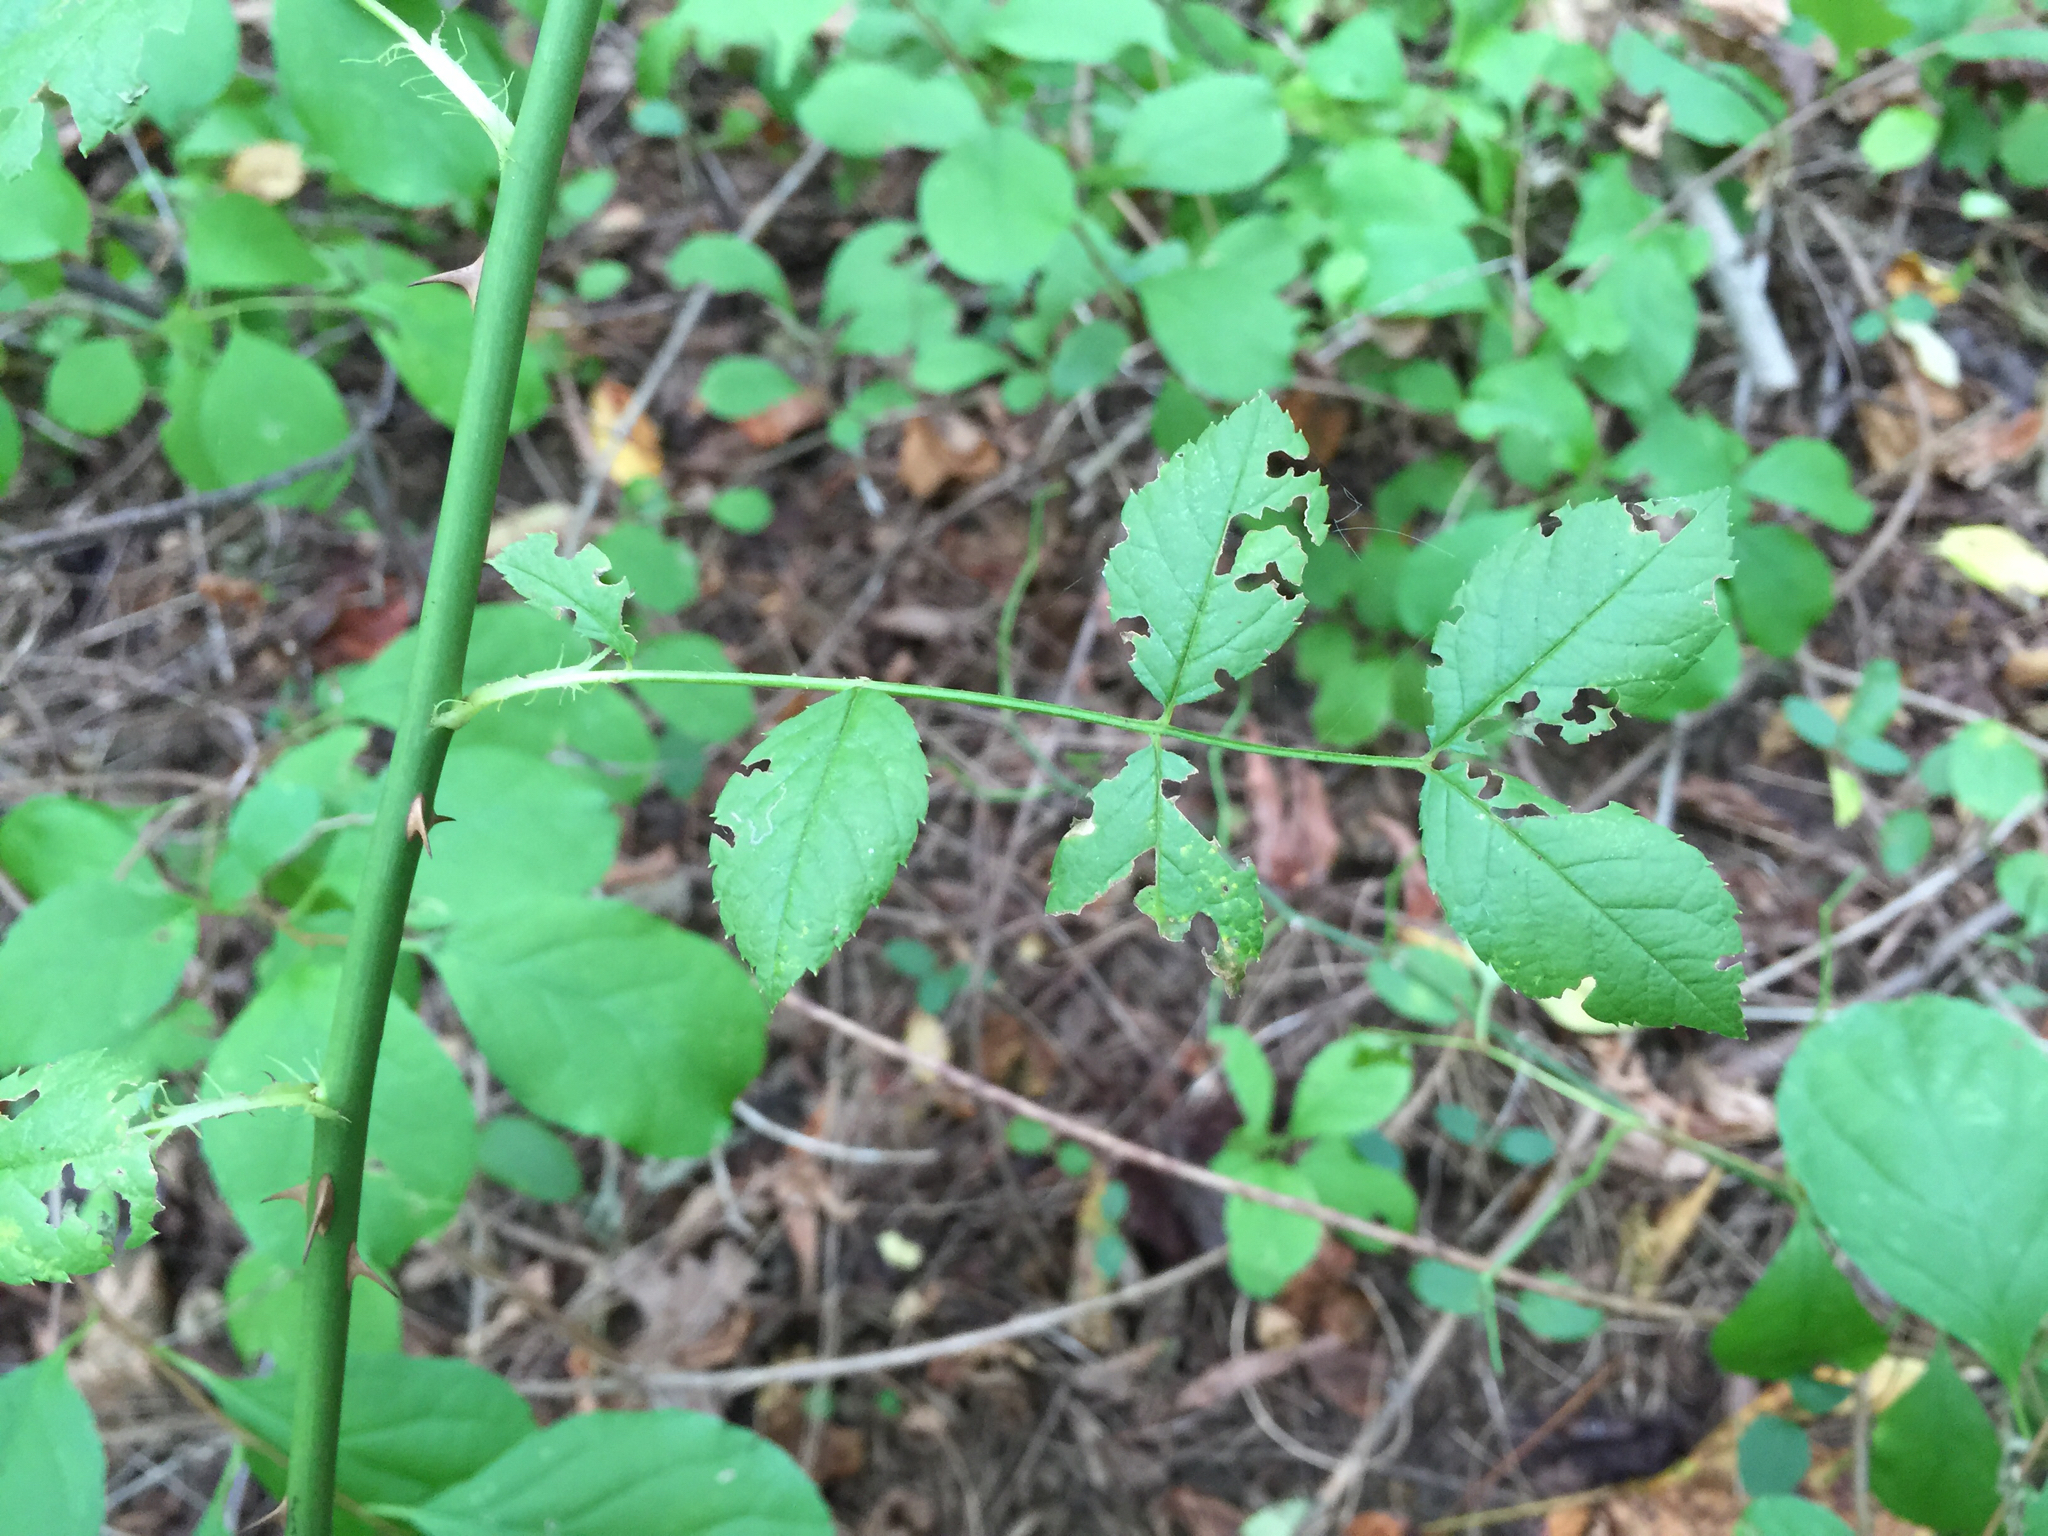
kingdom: Plantae
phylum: Tracheophyta
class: Magnoliopsida
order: Rosales
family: Rosaceae
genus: Rosa
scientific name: Rosa multiflora
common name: Multiflora rose
